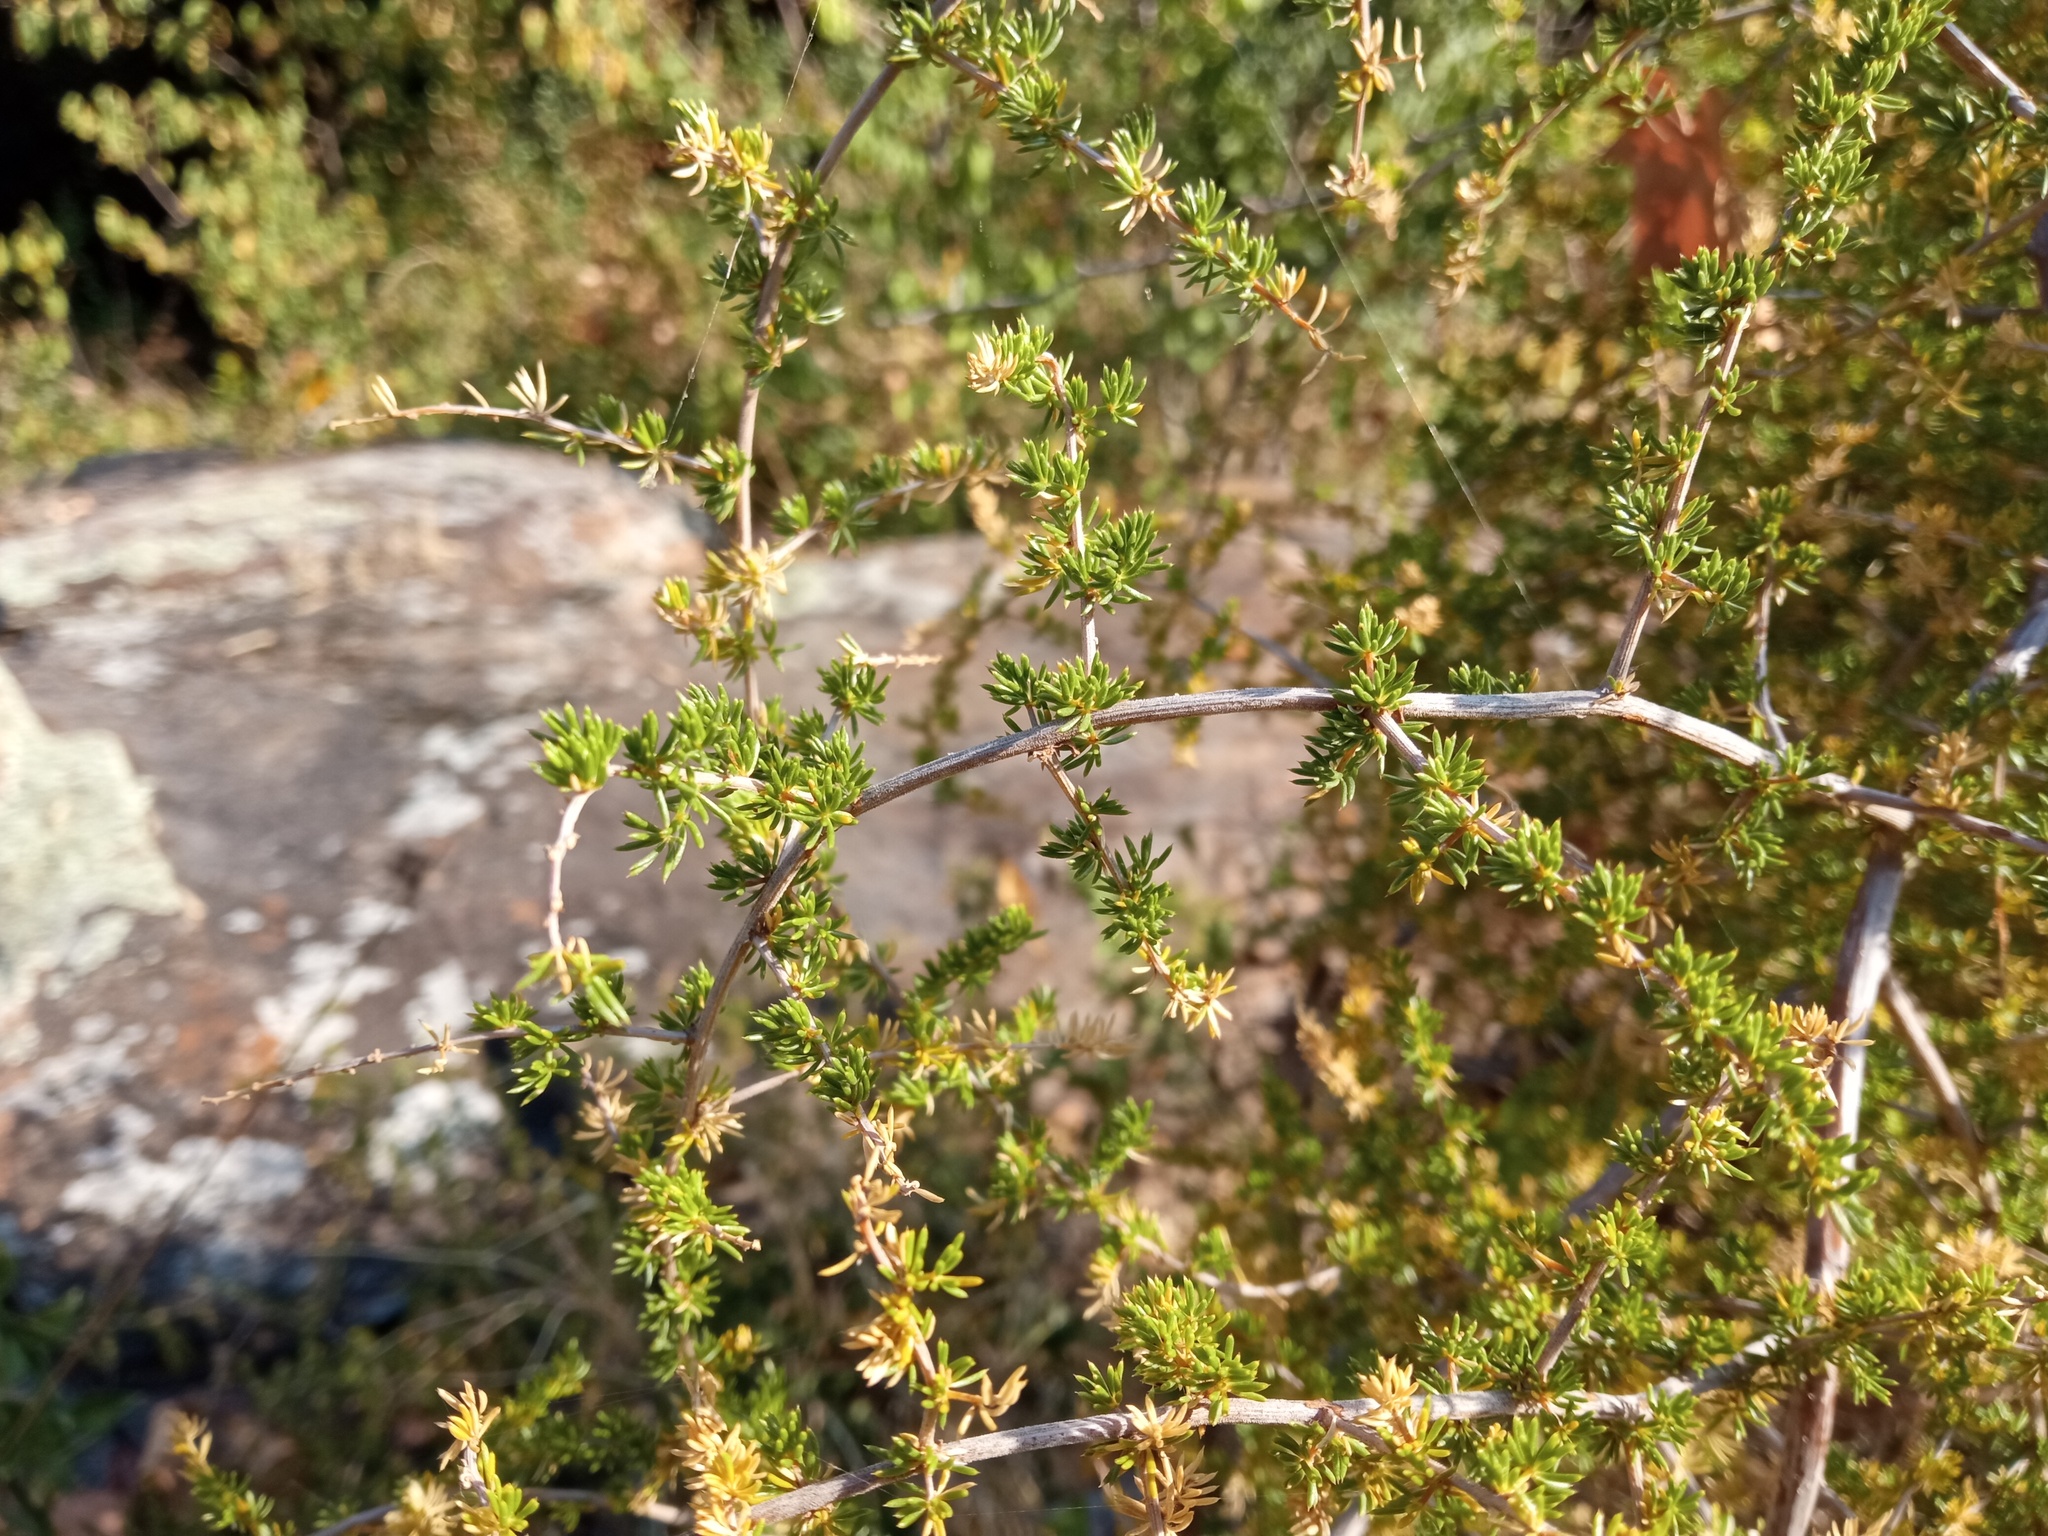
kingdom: Plantae
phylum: Tracheophyta
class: Liliopsida
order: Asparagales
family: Asparagaceae
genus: Asparagus
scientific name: Asparagus acutifolius
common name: Wild asparagus
